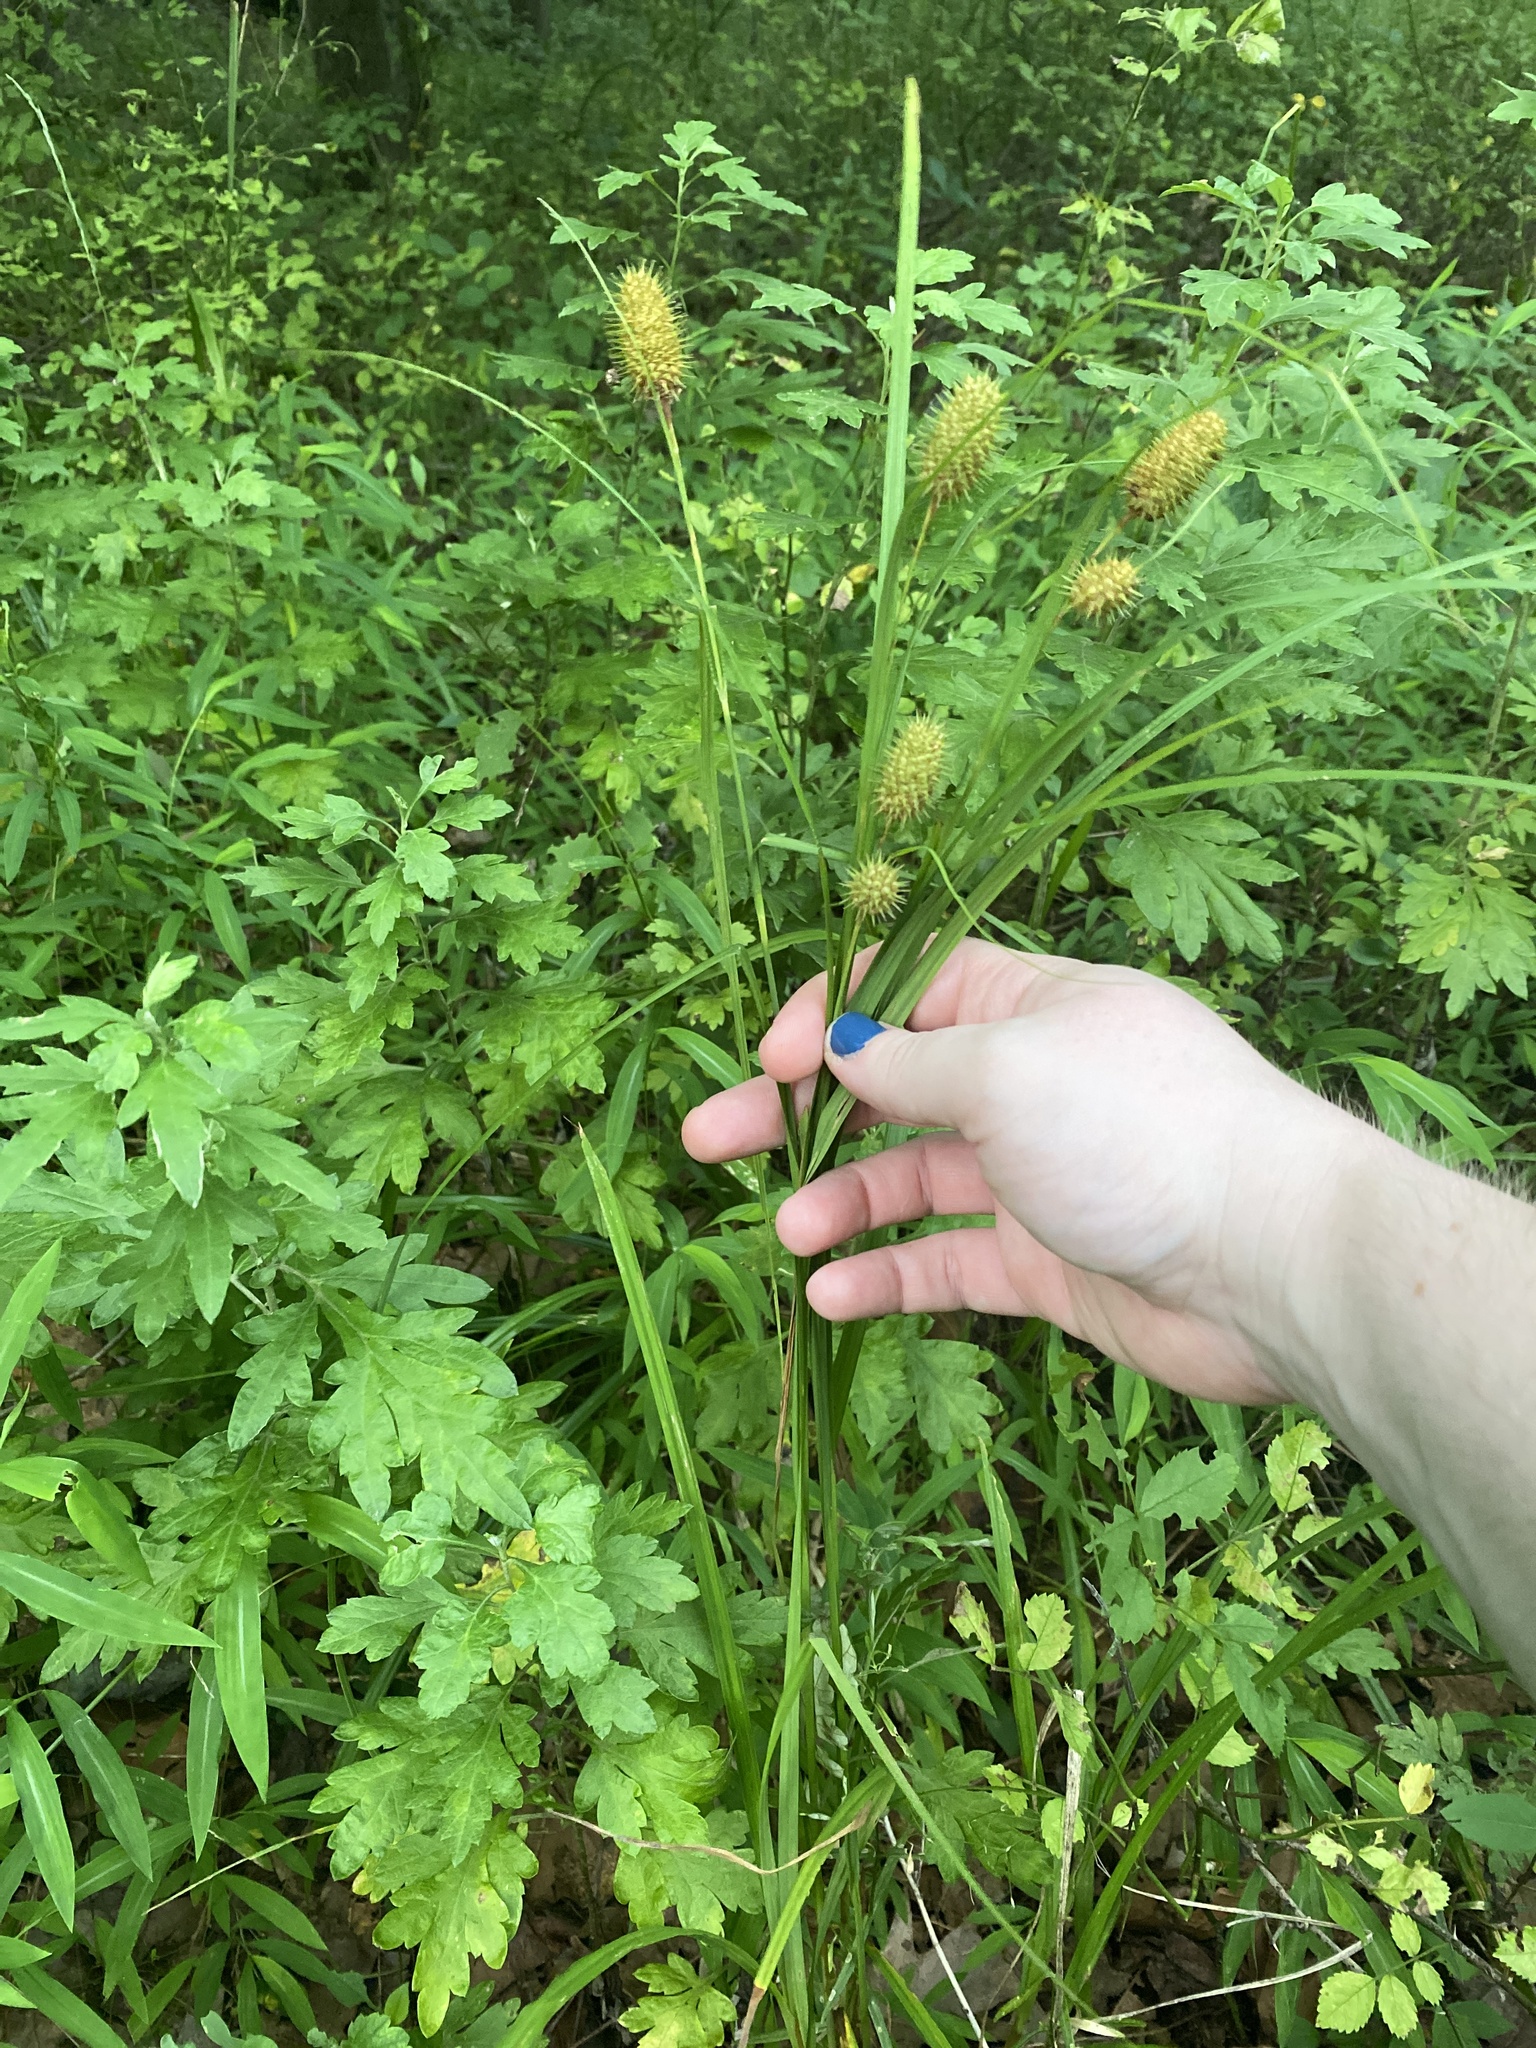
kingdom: Plantae
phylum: Tracheophyta
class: Liliopsida
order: Poales
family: Cyperaceae
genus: Carex
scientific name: Carex squarrosa
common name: Narrow-leaved cattail sedge
